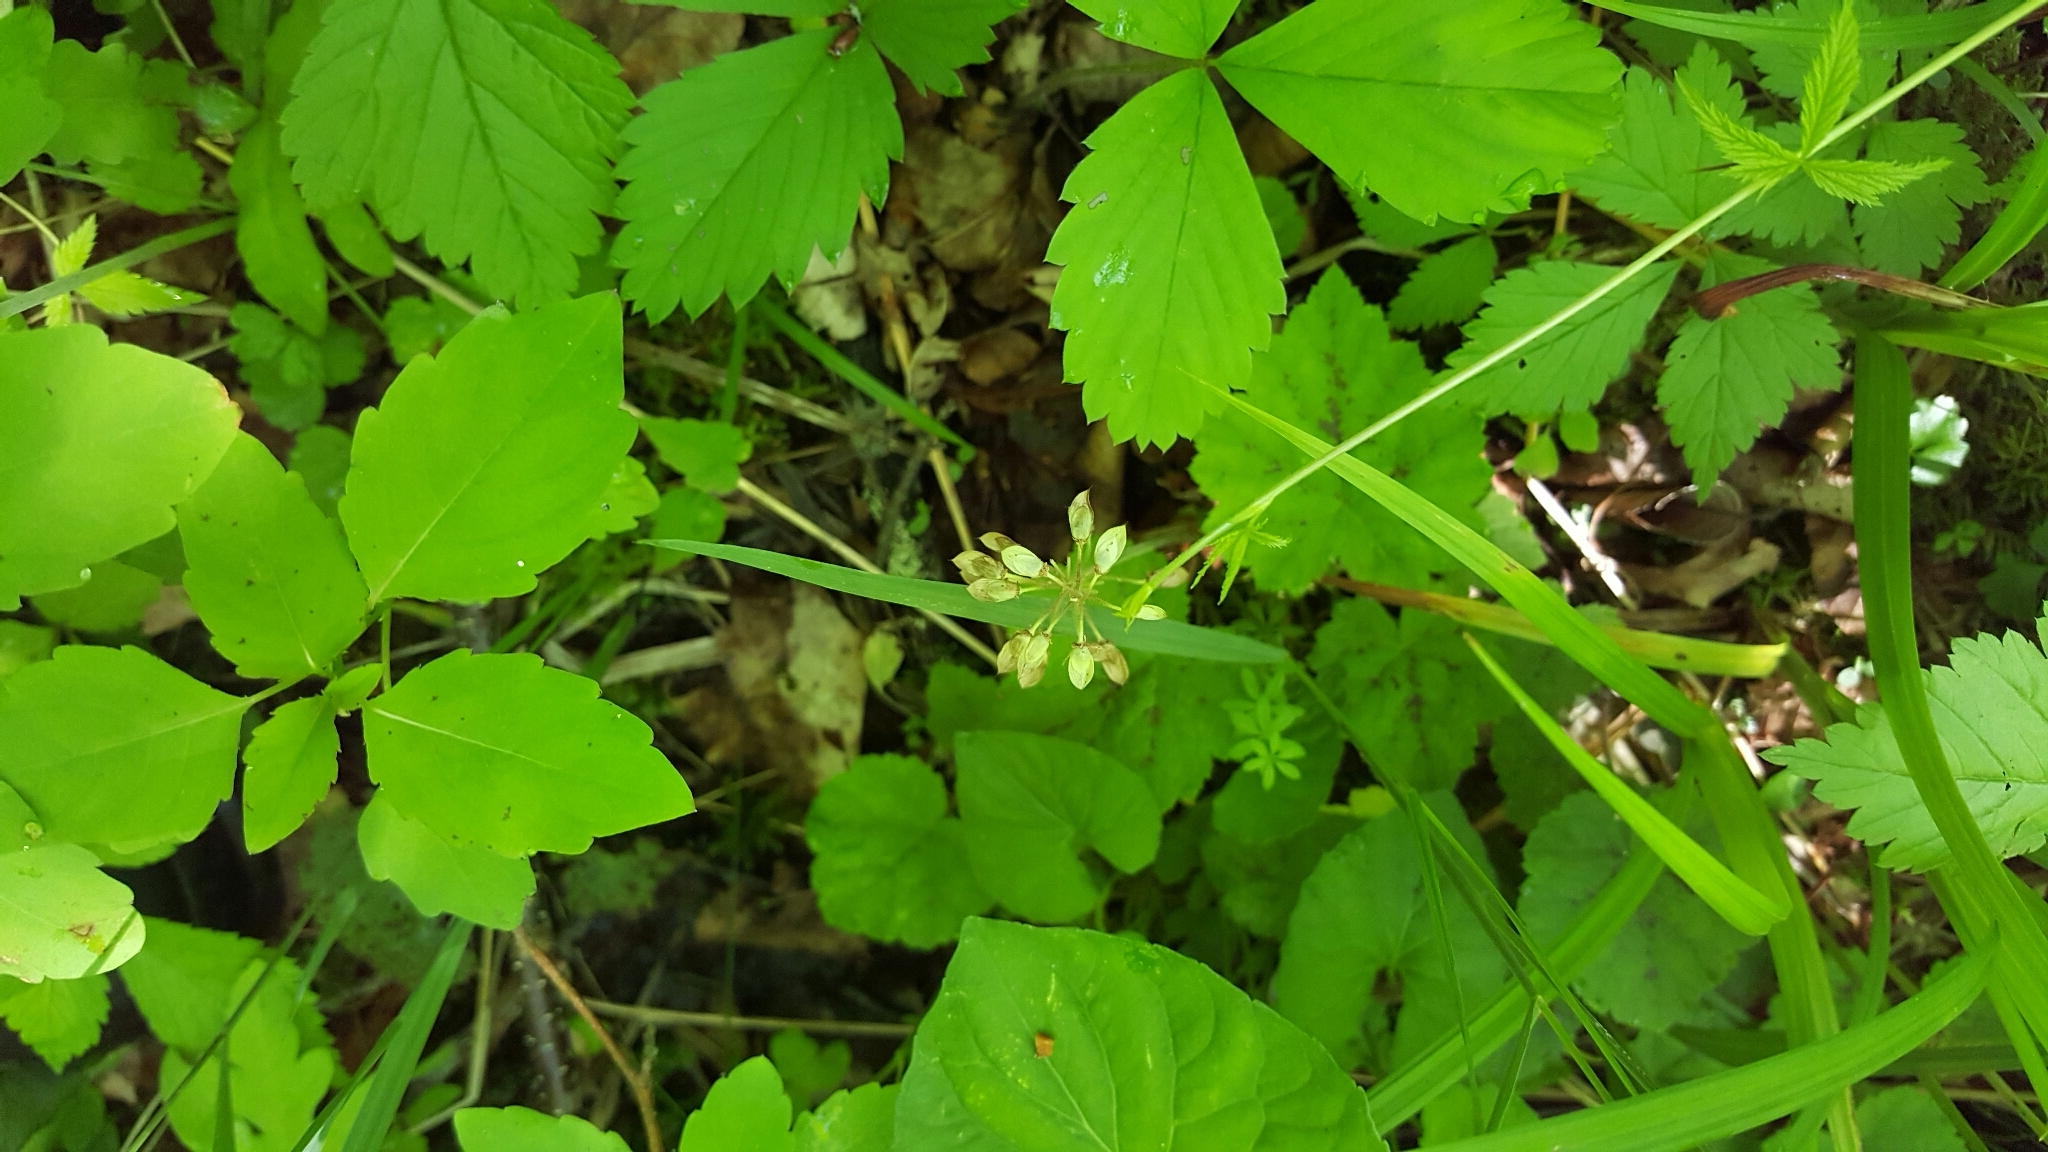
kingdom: Plantae
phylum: Tracheophyta
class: Magnoliopsida
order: Saxifragales
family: Saxifragaceae
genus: Tiarella
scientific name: Tiarella stolonifera
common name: Stoloniferous foamflower
